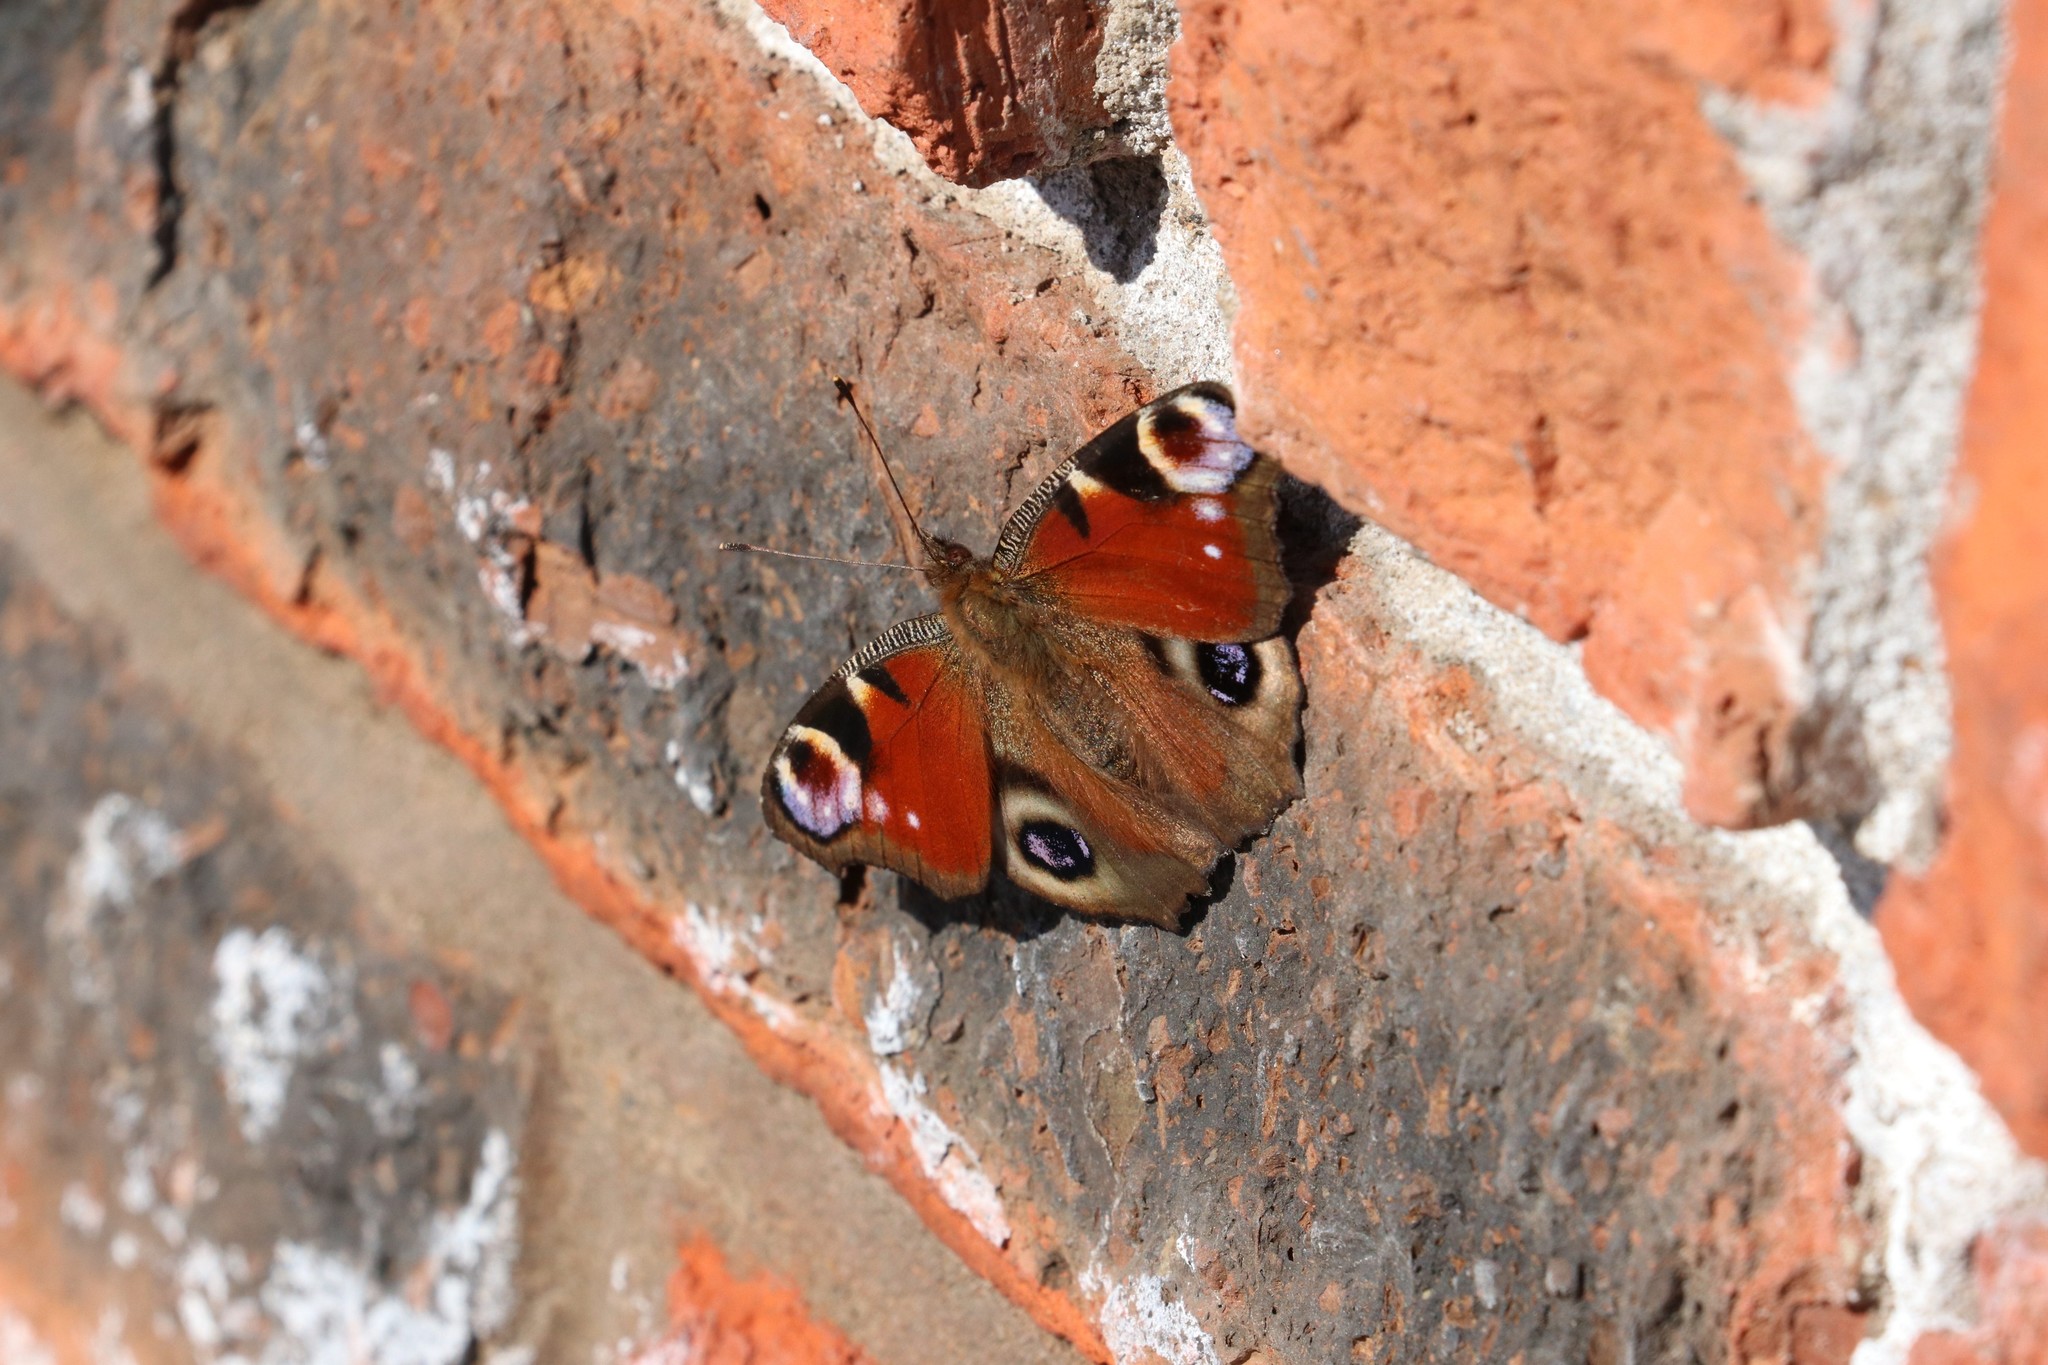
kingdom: Animalia
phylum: Arthropoda
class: Insecta
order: Lepidoptera
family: Nymphalidae
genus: Aglais
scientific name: Aglais io
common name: Peacock
